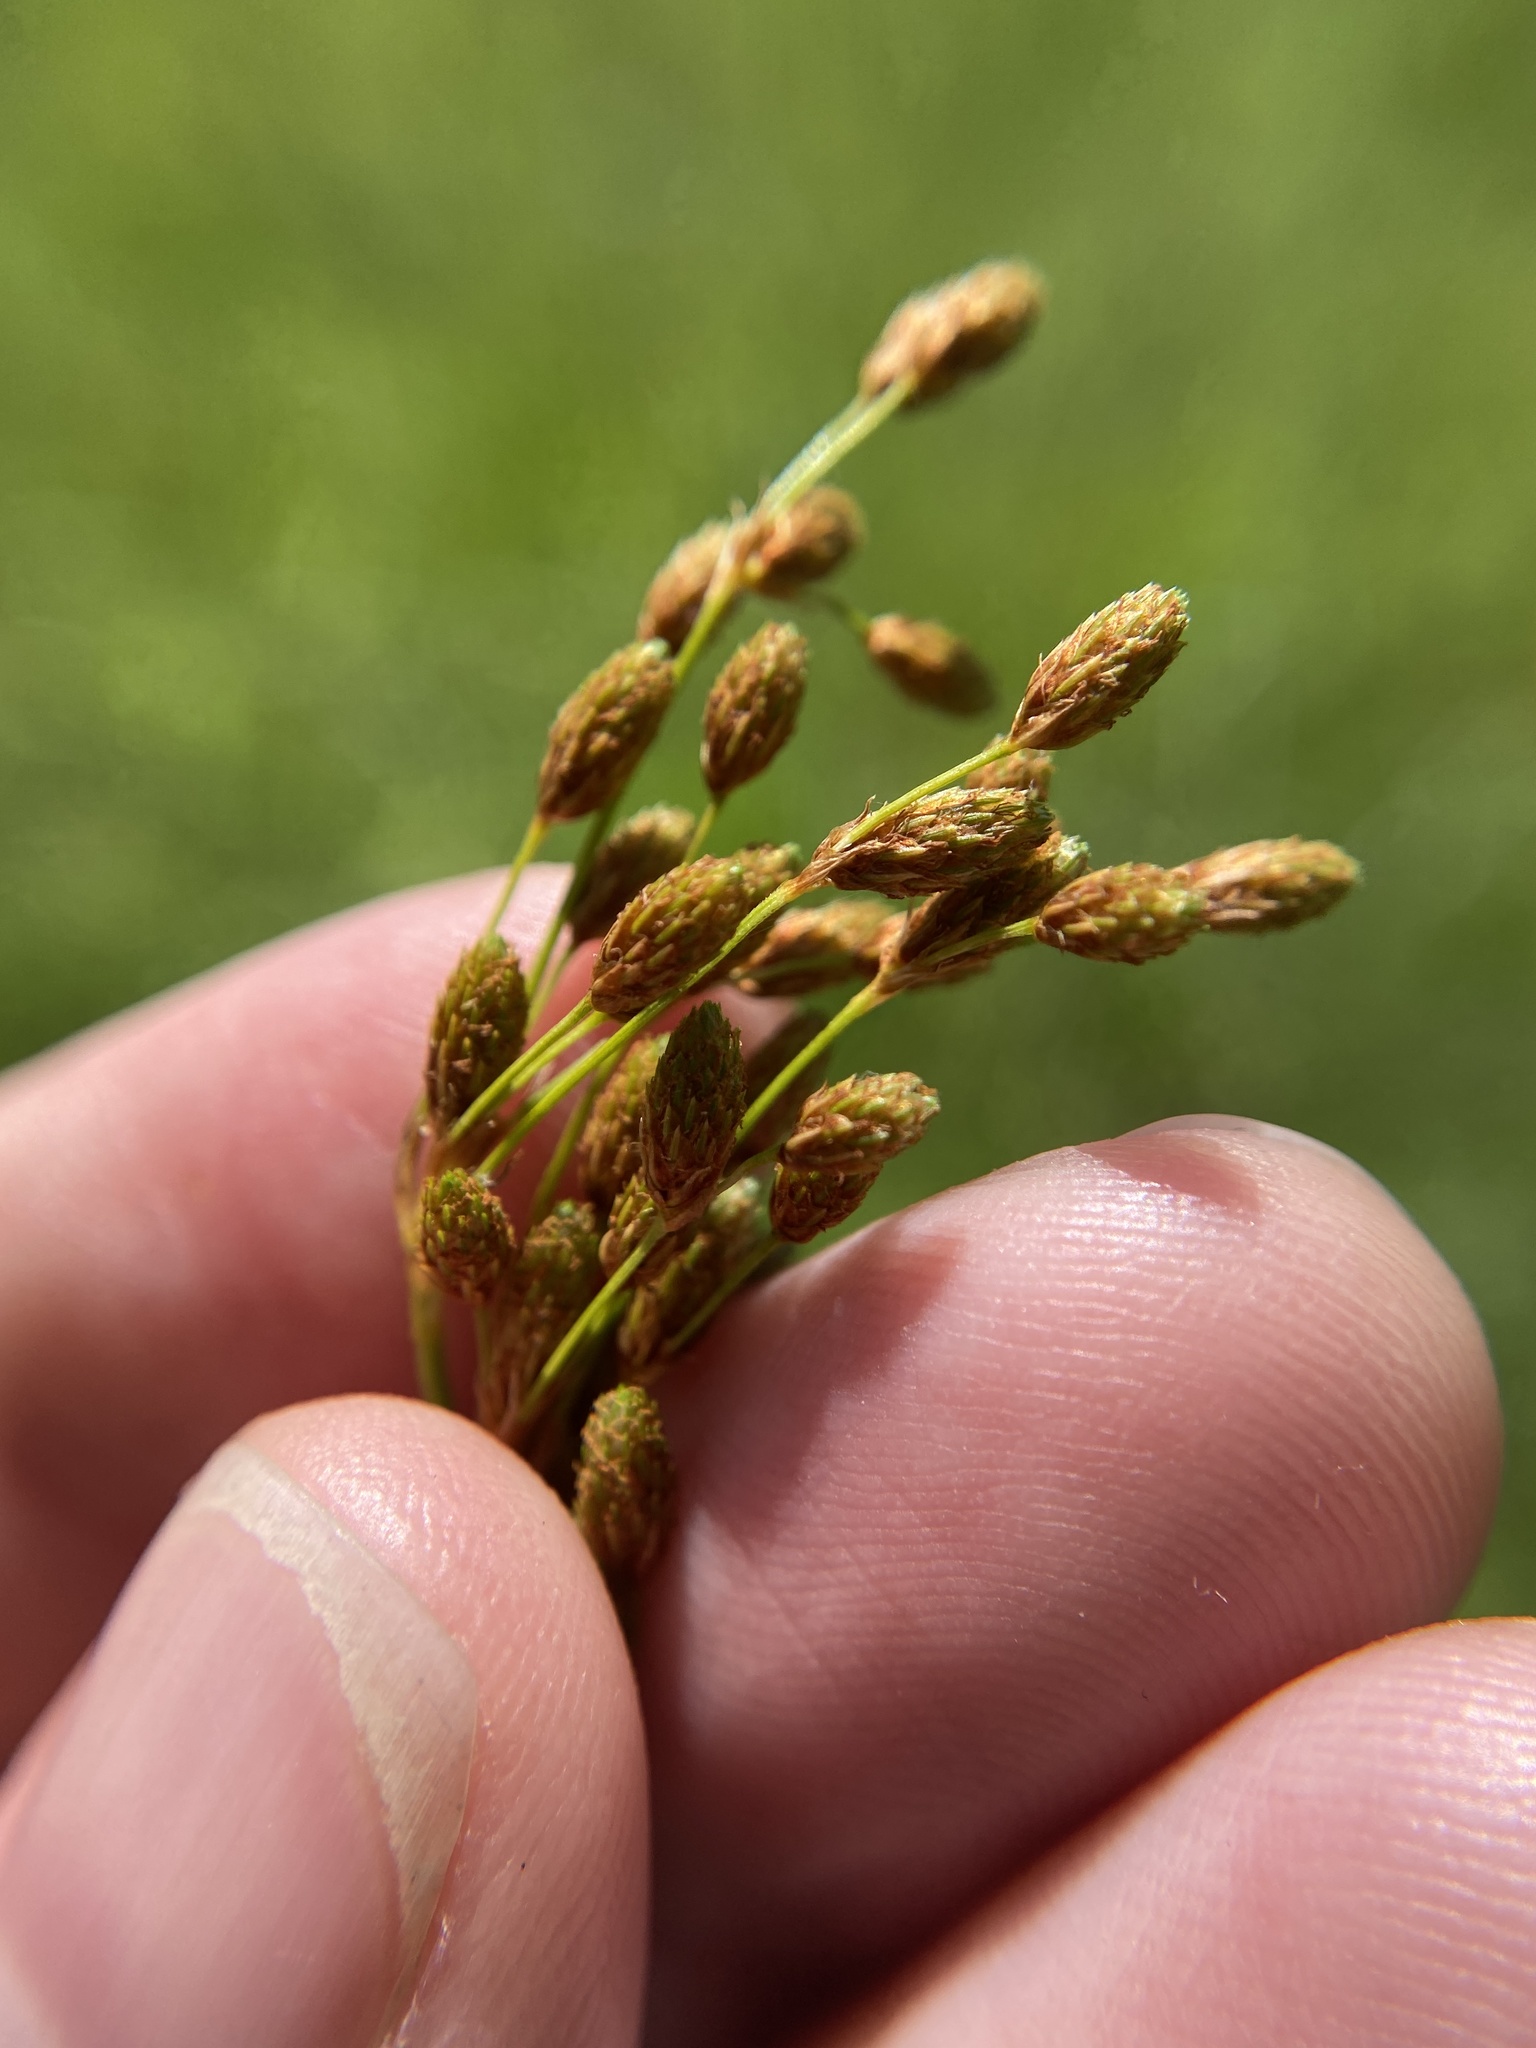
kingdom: Plantae
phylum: Tracheophyta
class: Liliopsida
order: Poales
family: Cyperaceae
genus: Scirpus
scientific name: Scirpus pendulus
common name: Nodding bulrush
